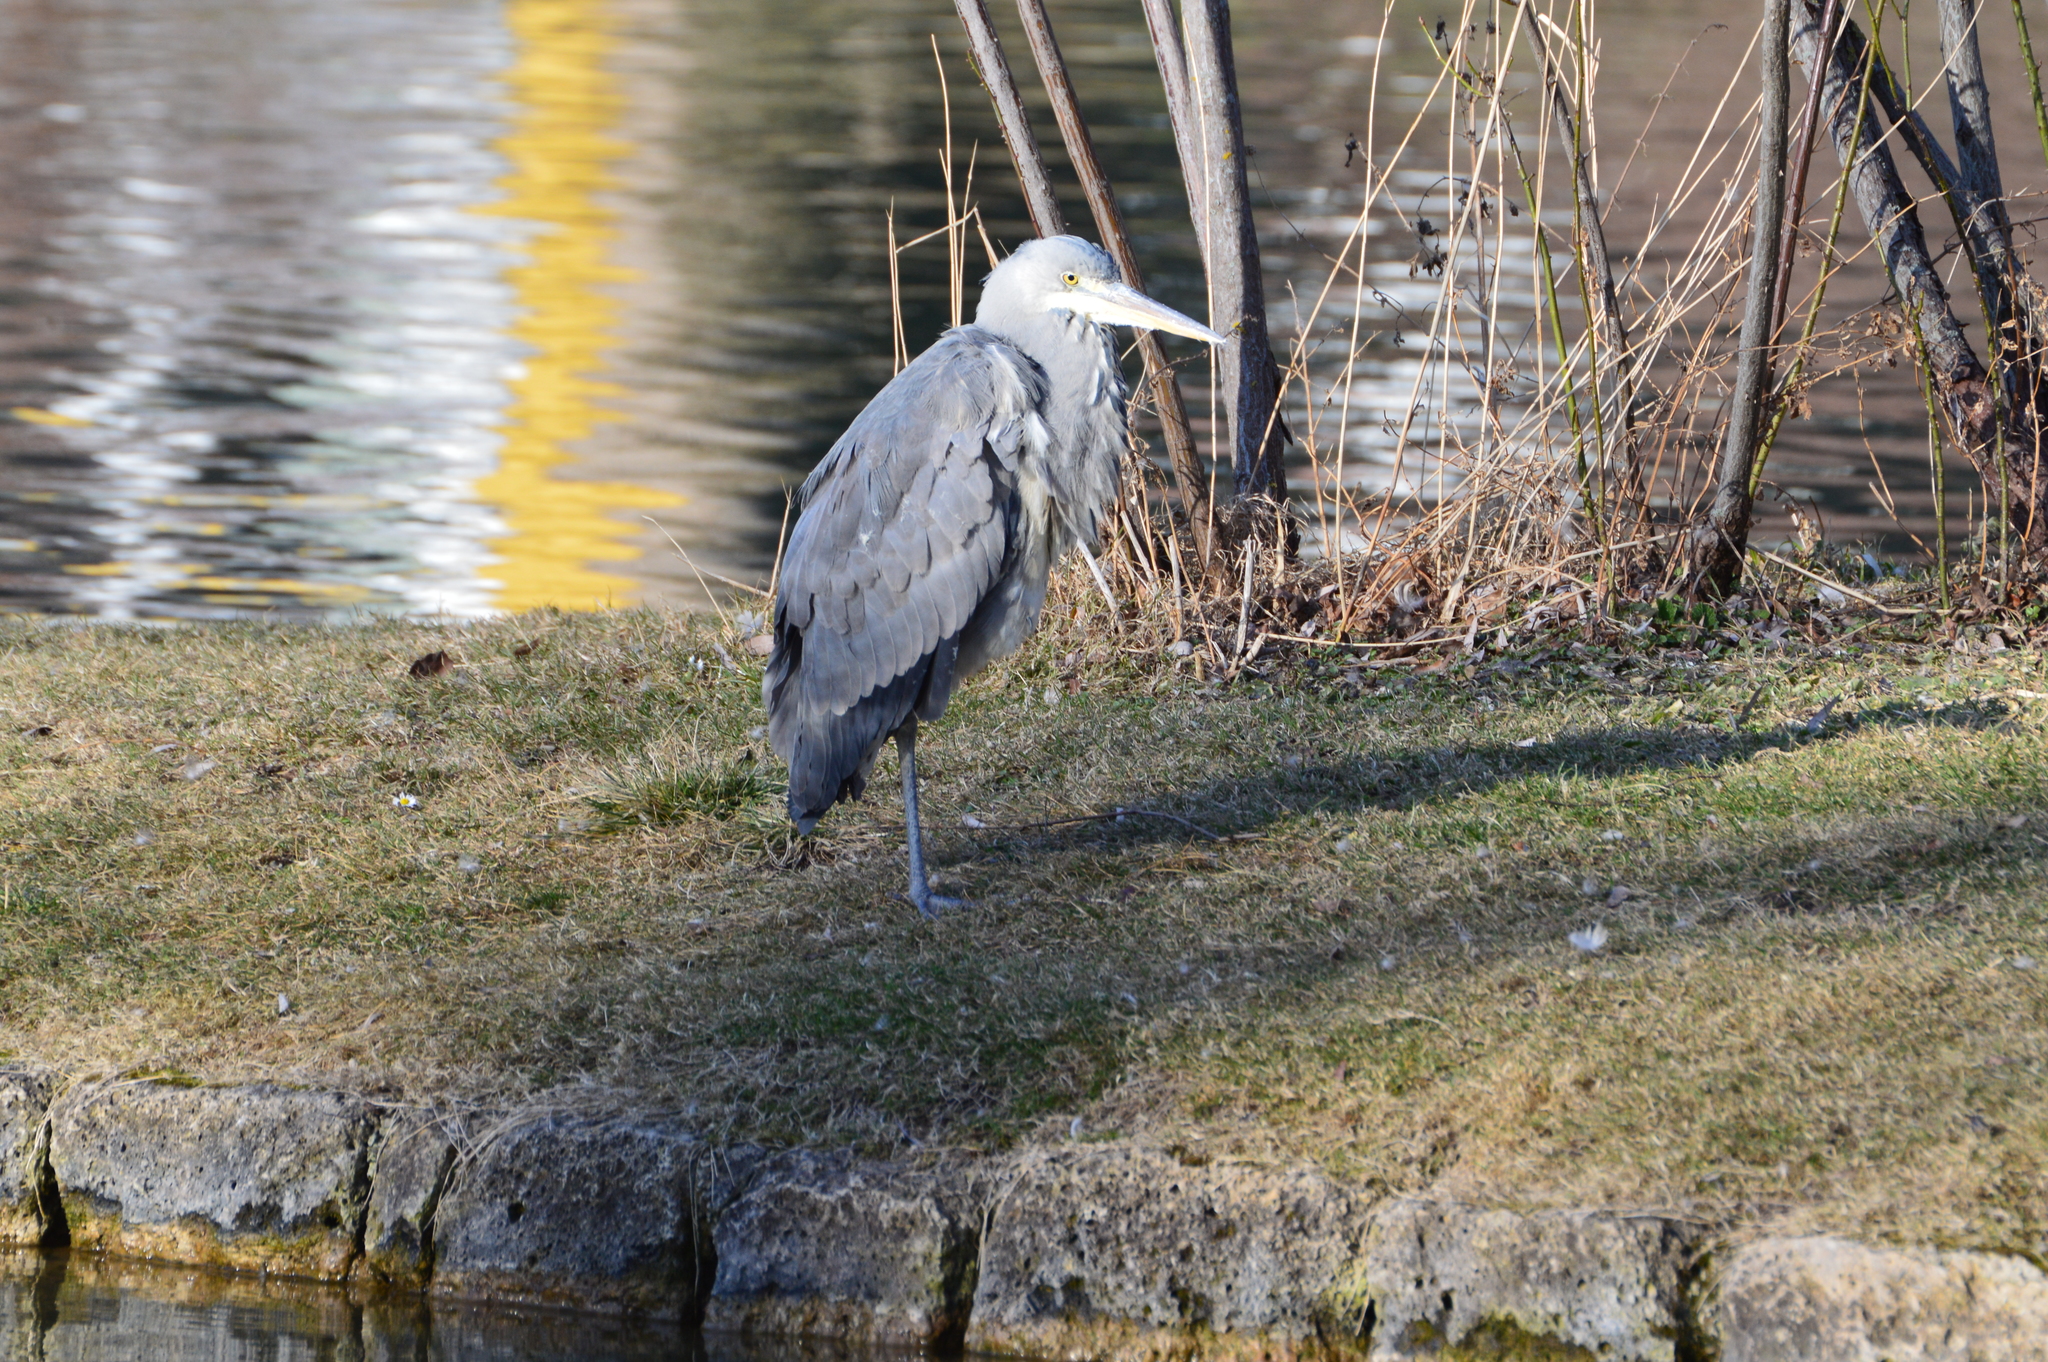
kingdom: Animalia
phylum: Chordata
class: Aves
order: Pelecaniformes
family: Ardeidae
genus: Ardea
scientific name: Ardea cinerea
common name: Grey heron
